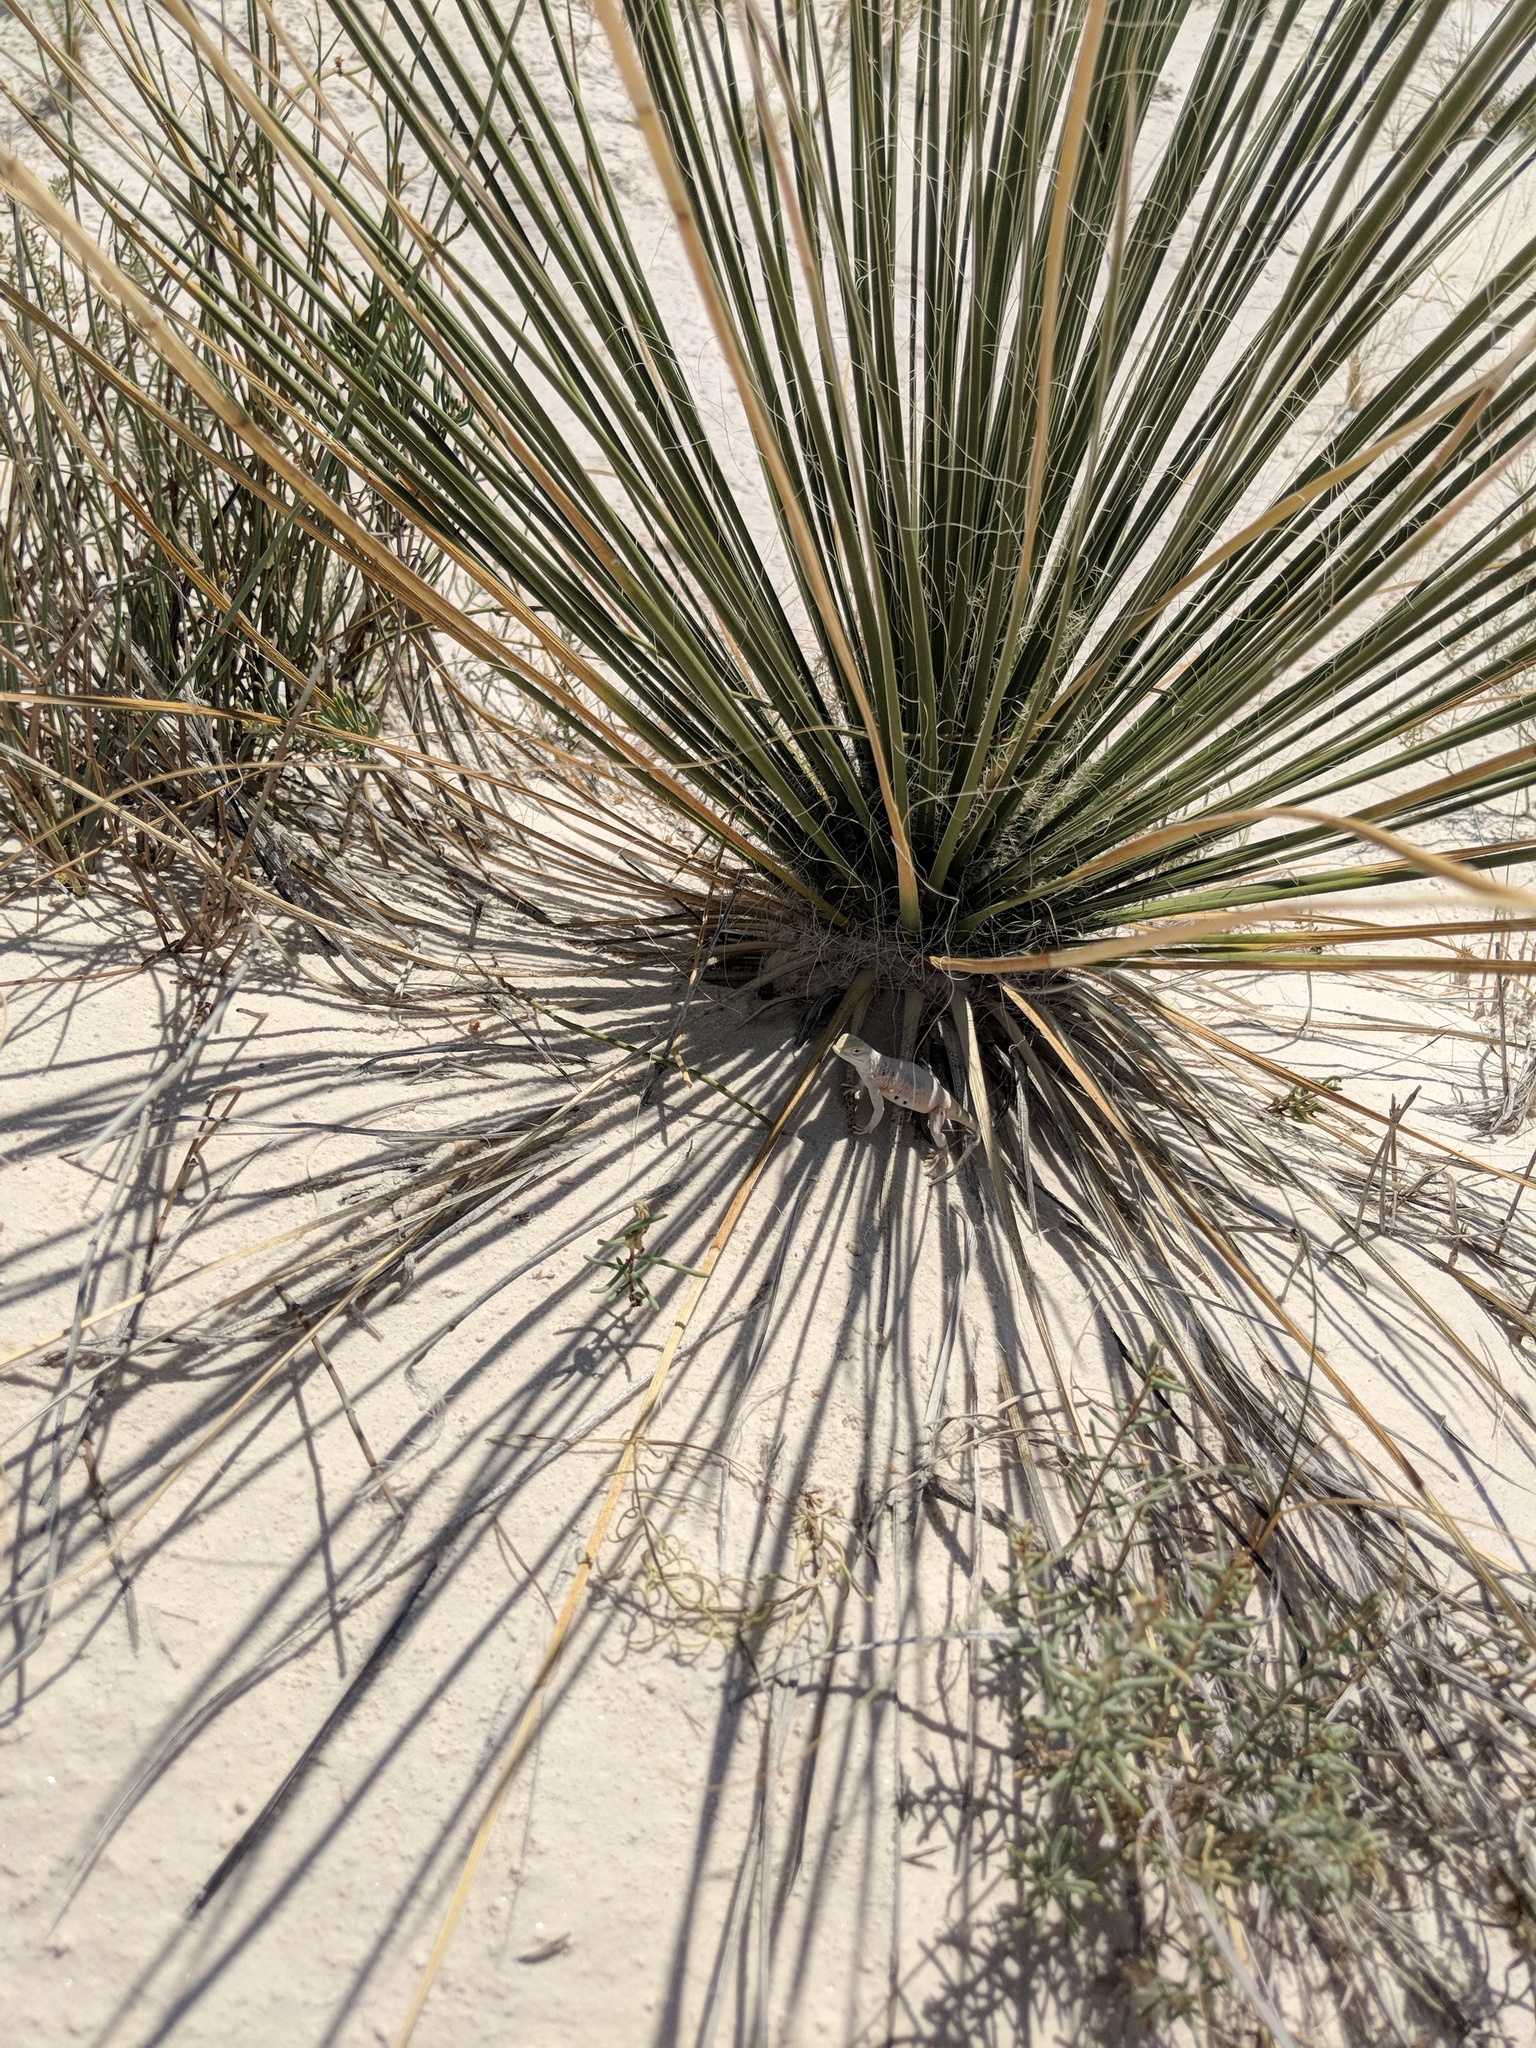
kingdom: Animalia
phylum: Chordata
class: Squamata
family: Phrynosomatidae
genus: Holbrookia
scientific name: Holbrookia maculata
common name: Lesser earless lizard
